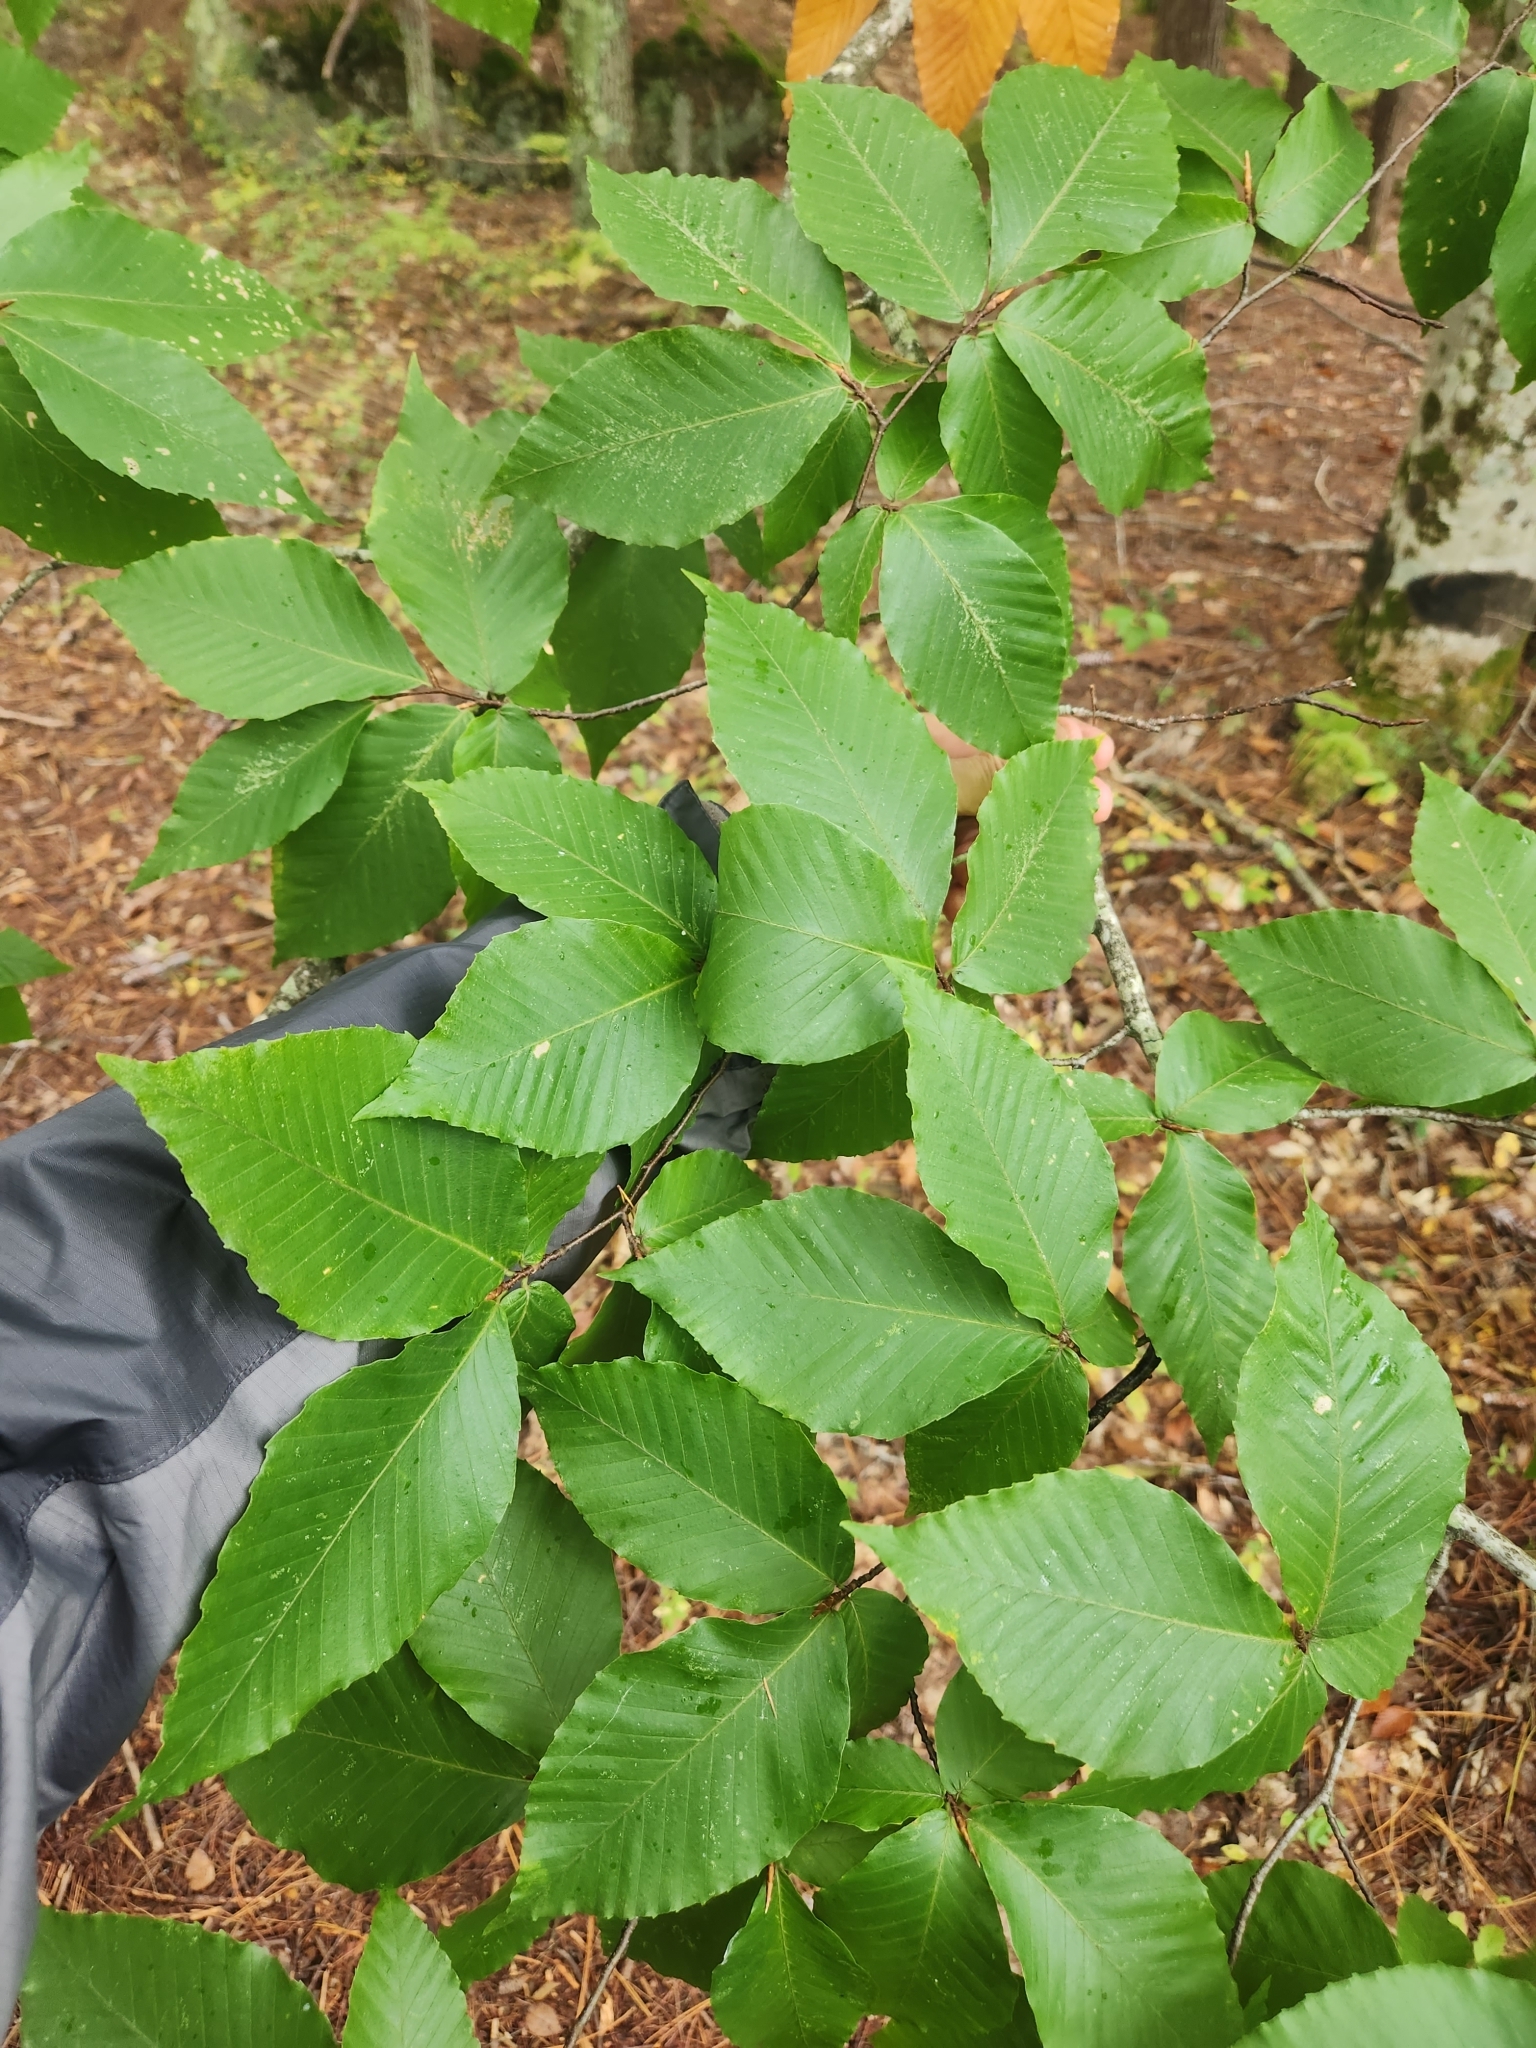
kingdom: Plantae
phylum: Tracheophyta
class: Magnoliopsida
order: Fagales
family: Fagaceae
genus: Fagus
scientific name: Fagus grandifolia
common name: American beech
